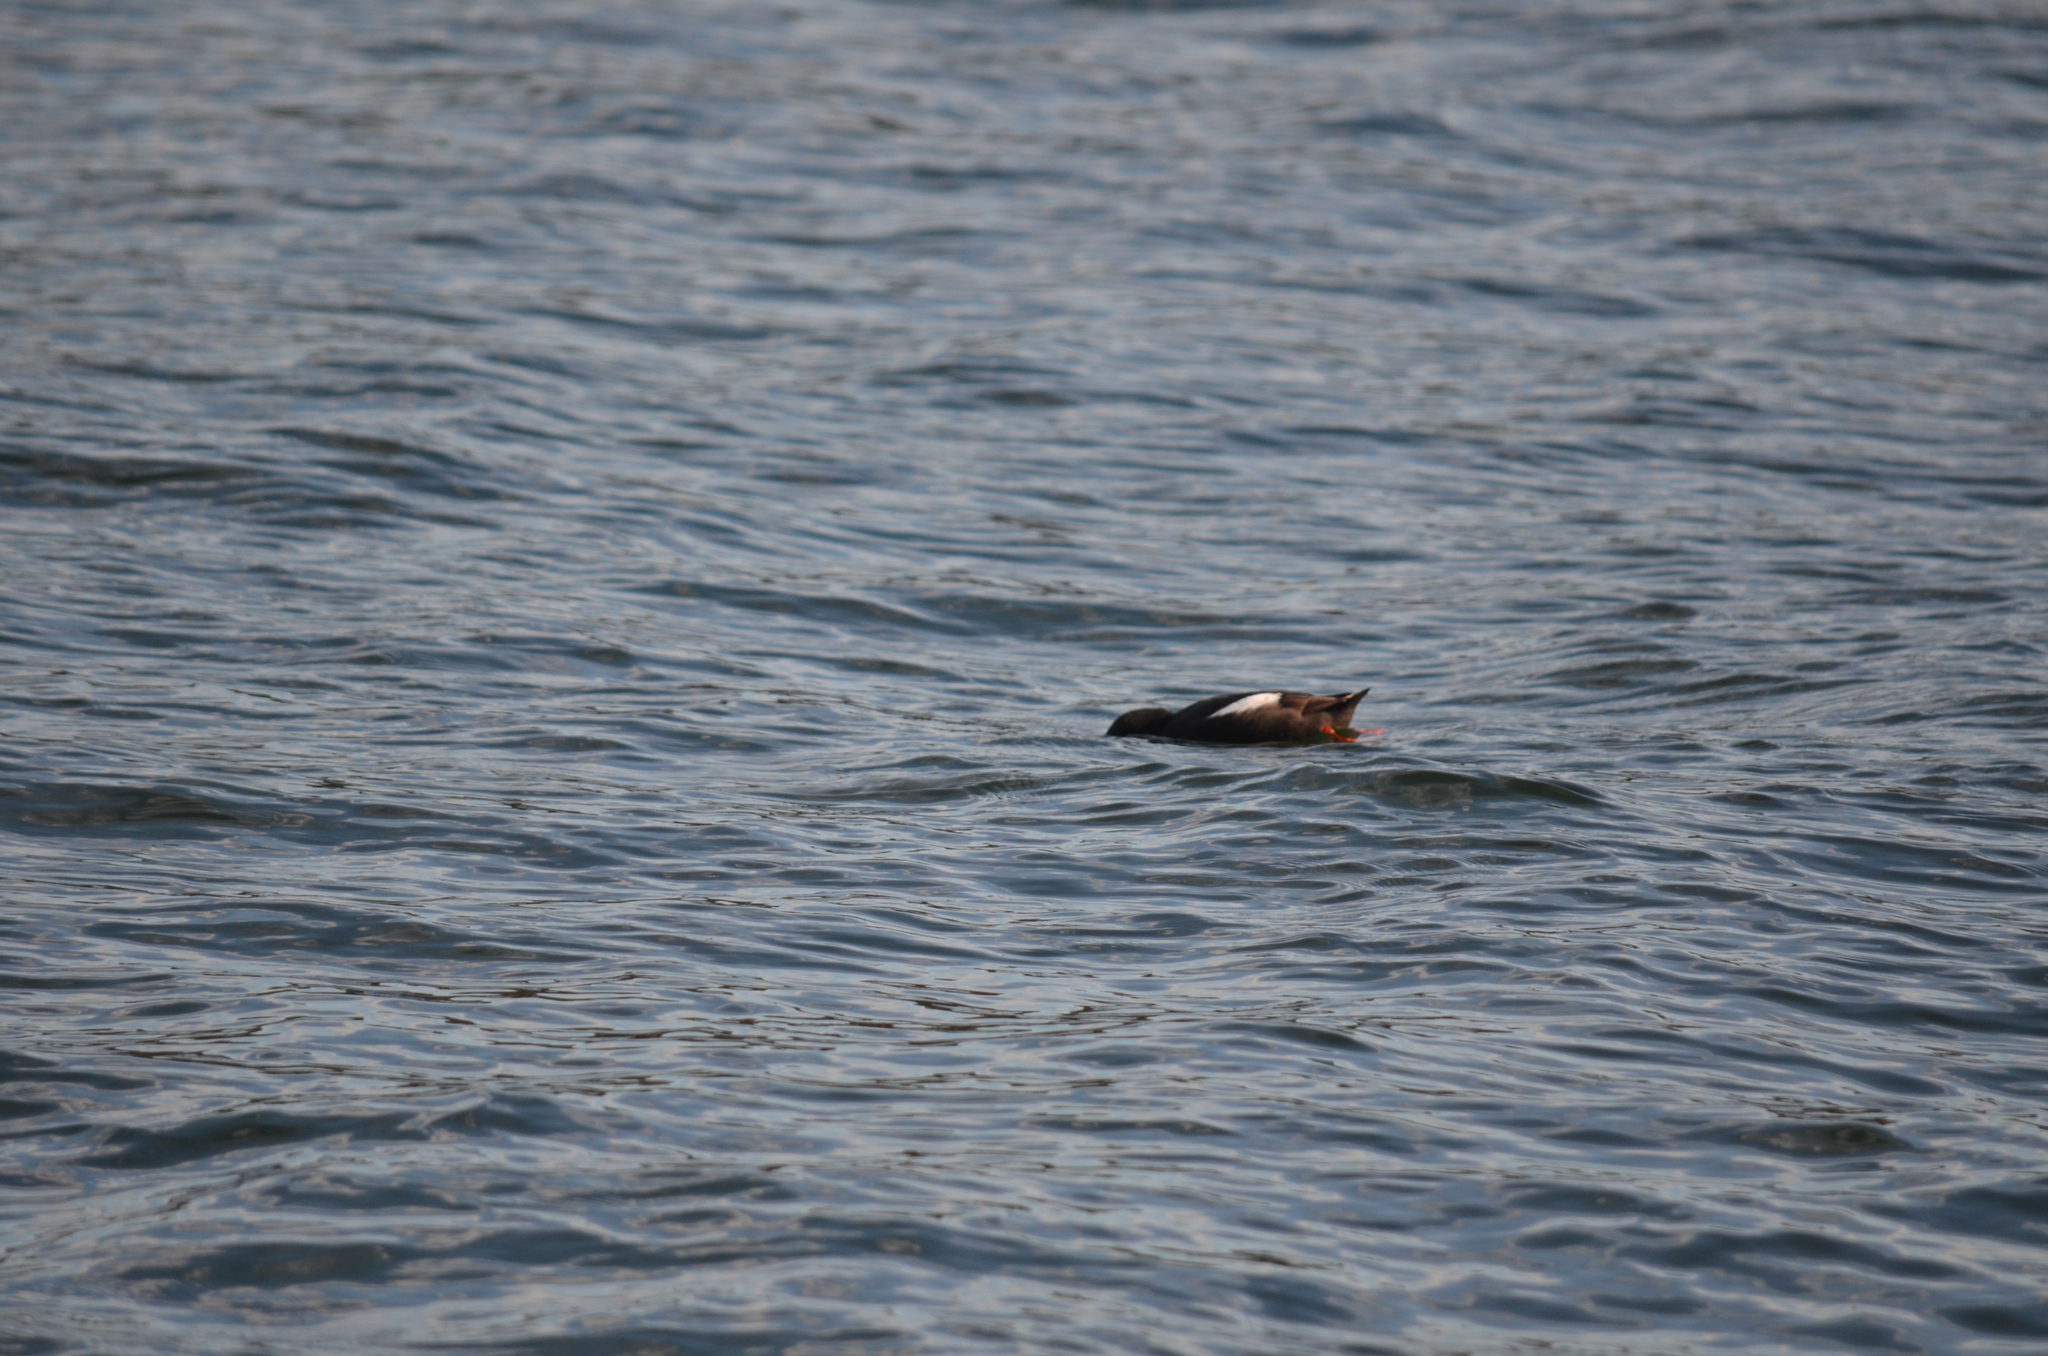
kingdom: Animalia
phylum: Chordata
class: Aves
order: Charadriiformes
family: Alcidae
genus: Cepphus
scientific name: Cepphus columba
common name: Pigeon guillemot
